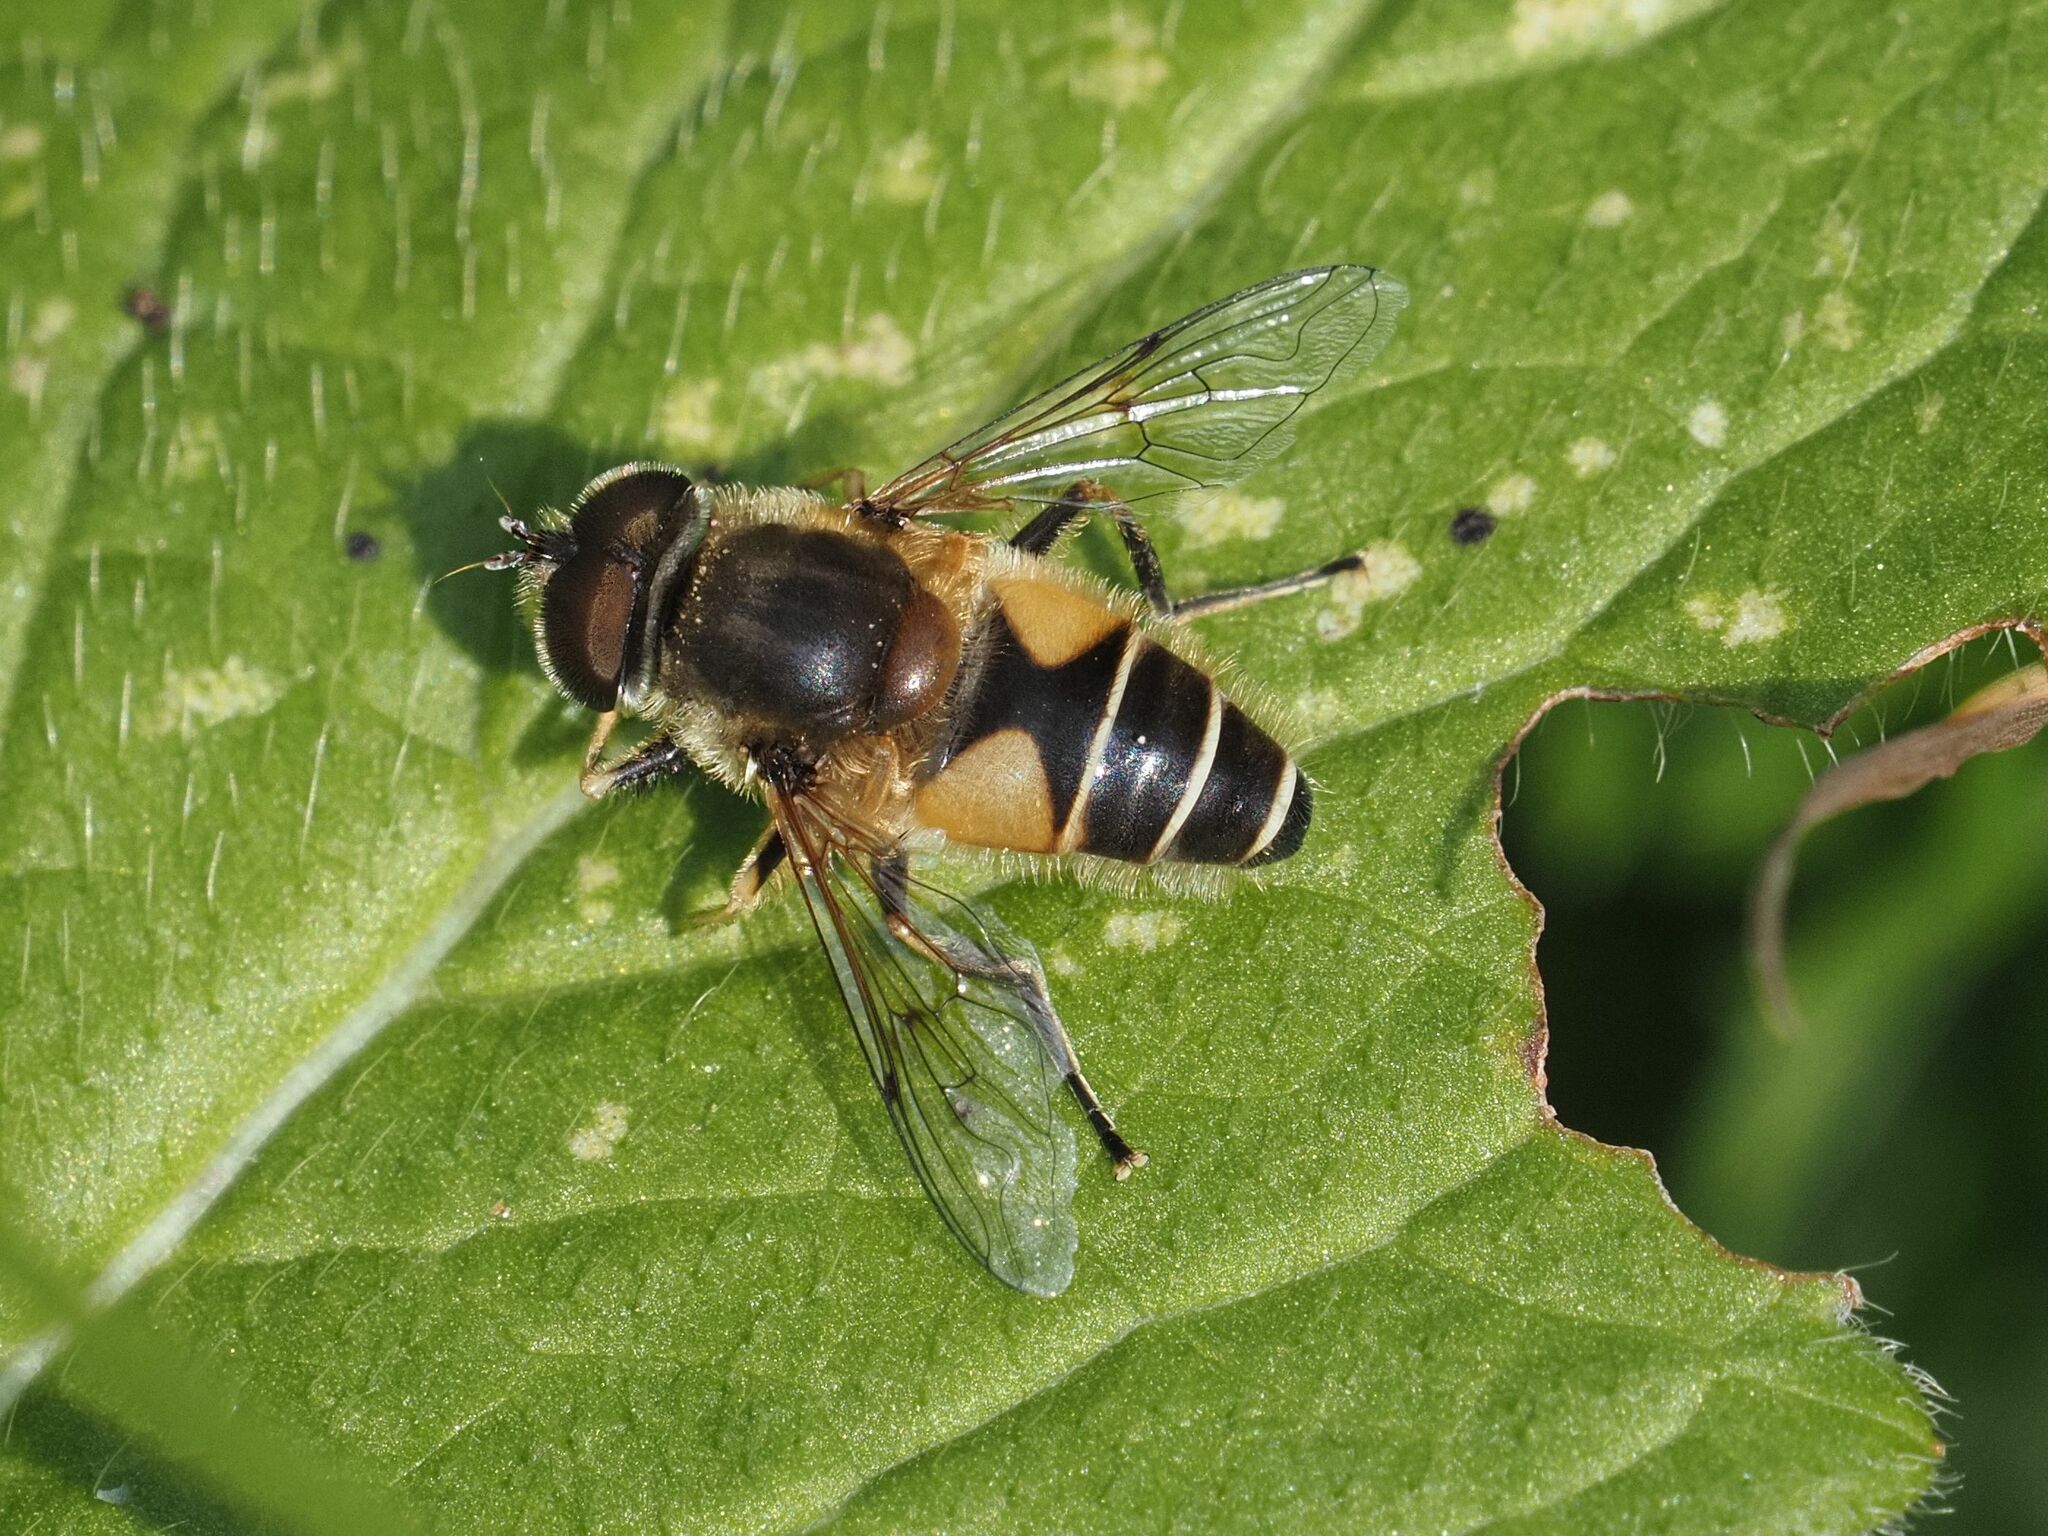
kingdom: Animalia
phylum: Arthropoda
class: Insecta
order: Diptera
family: Syrphidae
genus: Eristalis
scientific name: Eristalis jugorum
